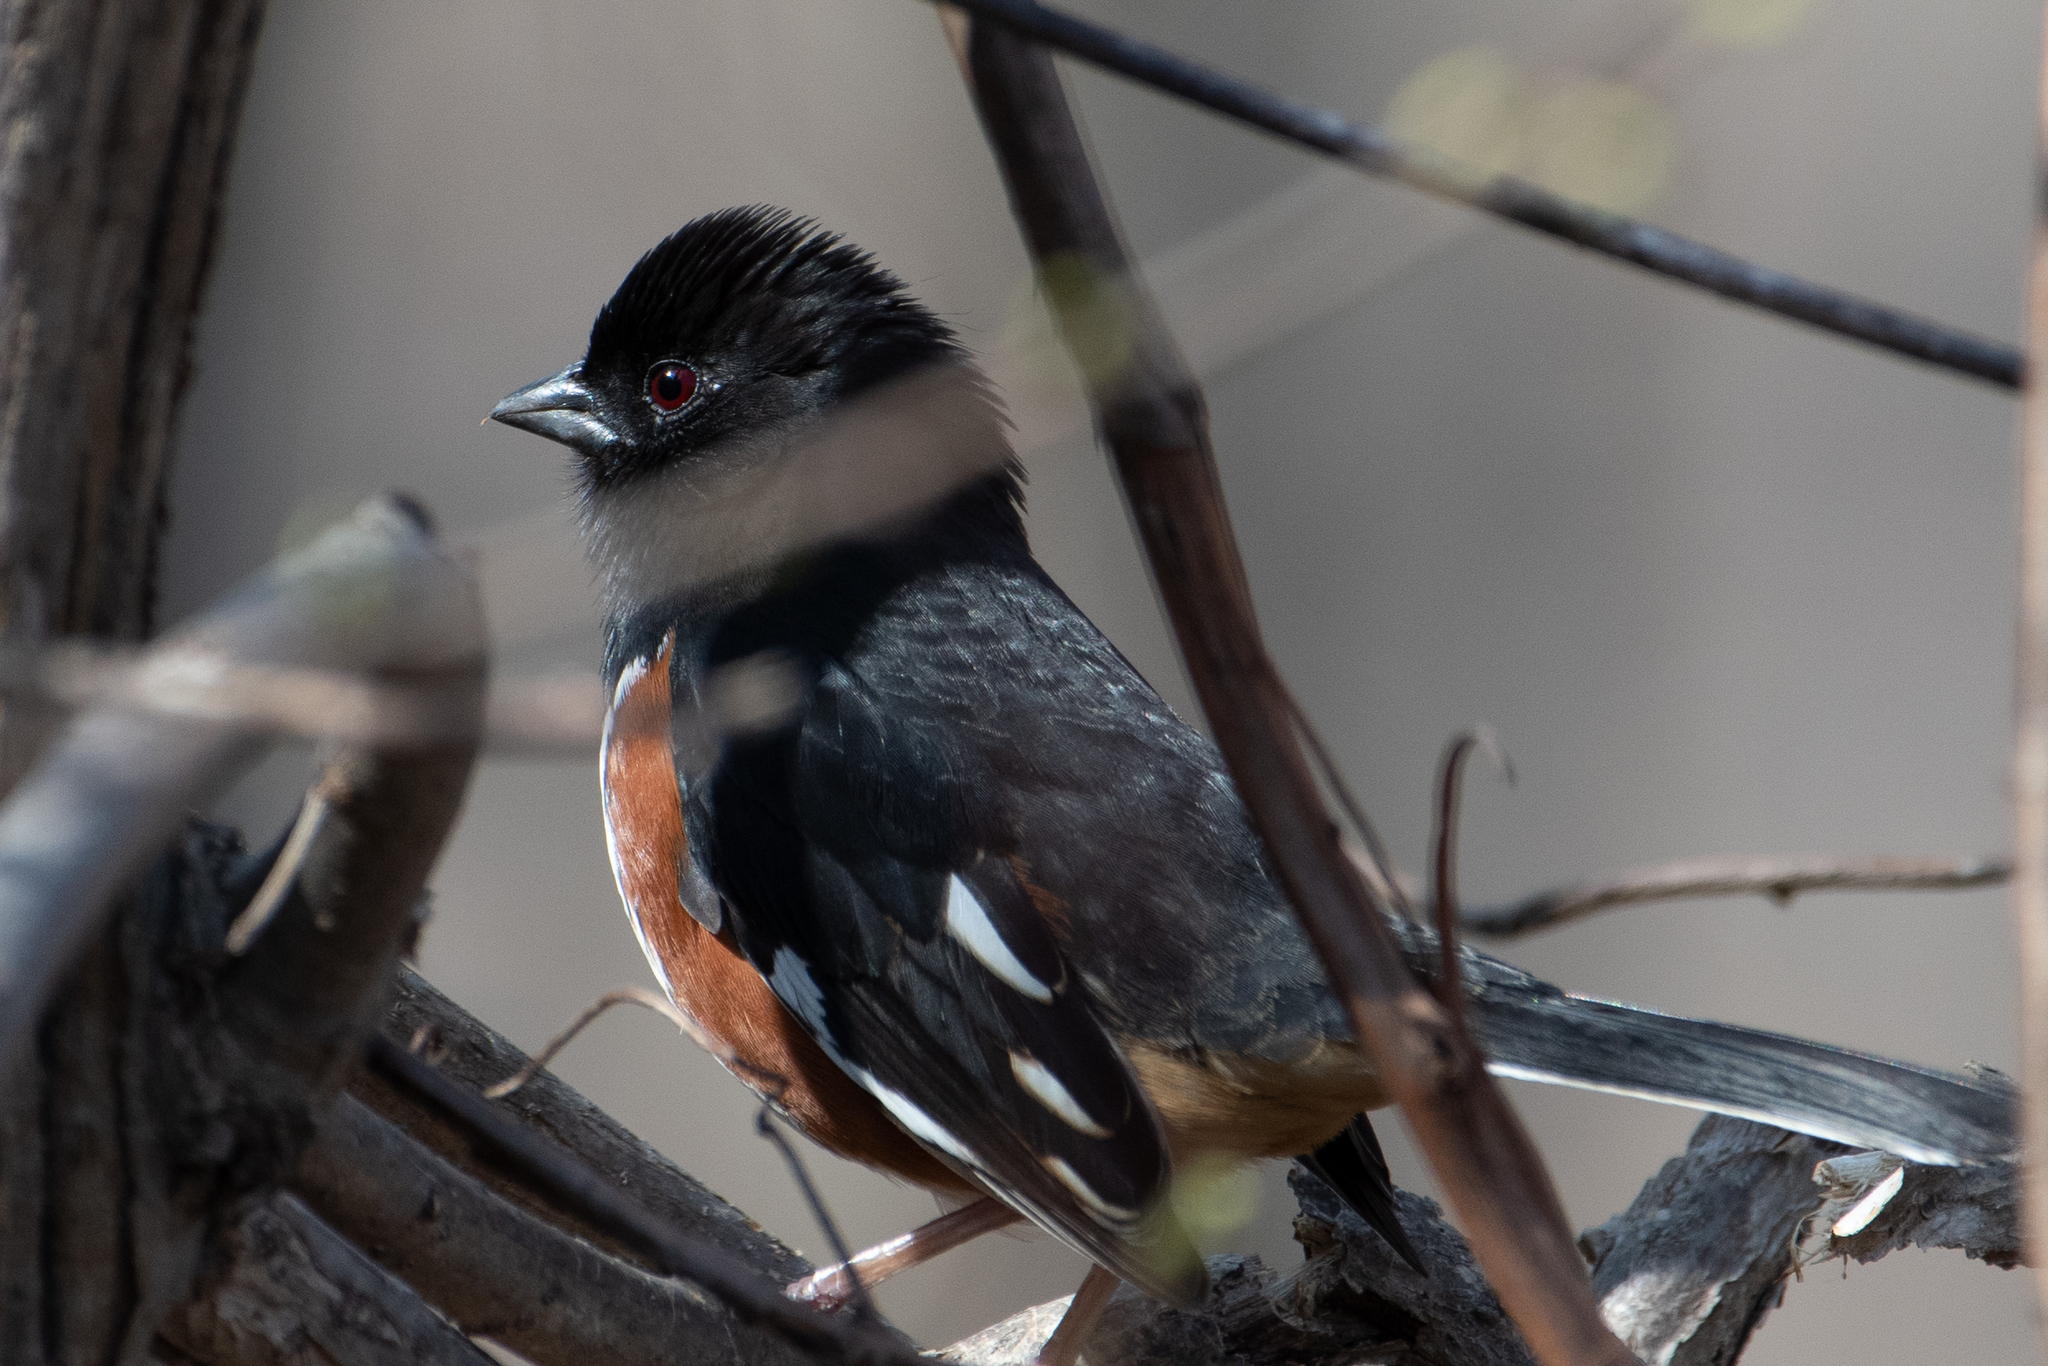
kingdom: Animalia
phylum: Chordata
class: Aves
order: Passeriformes
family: Passerellidae
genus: Pipilo
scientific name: Pipilo erythrophthalmus
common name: Eastern towhee
